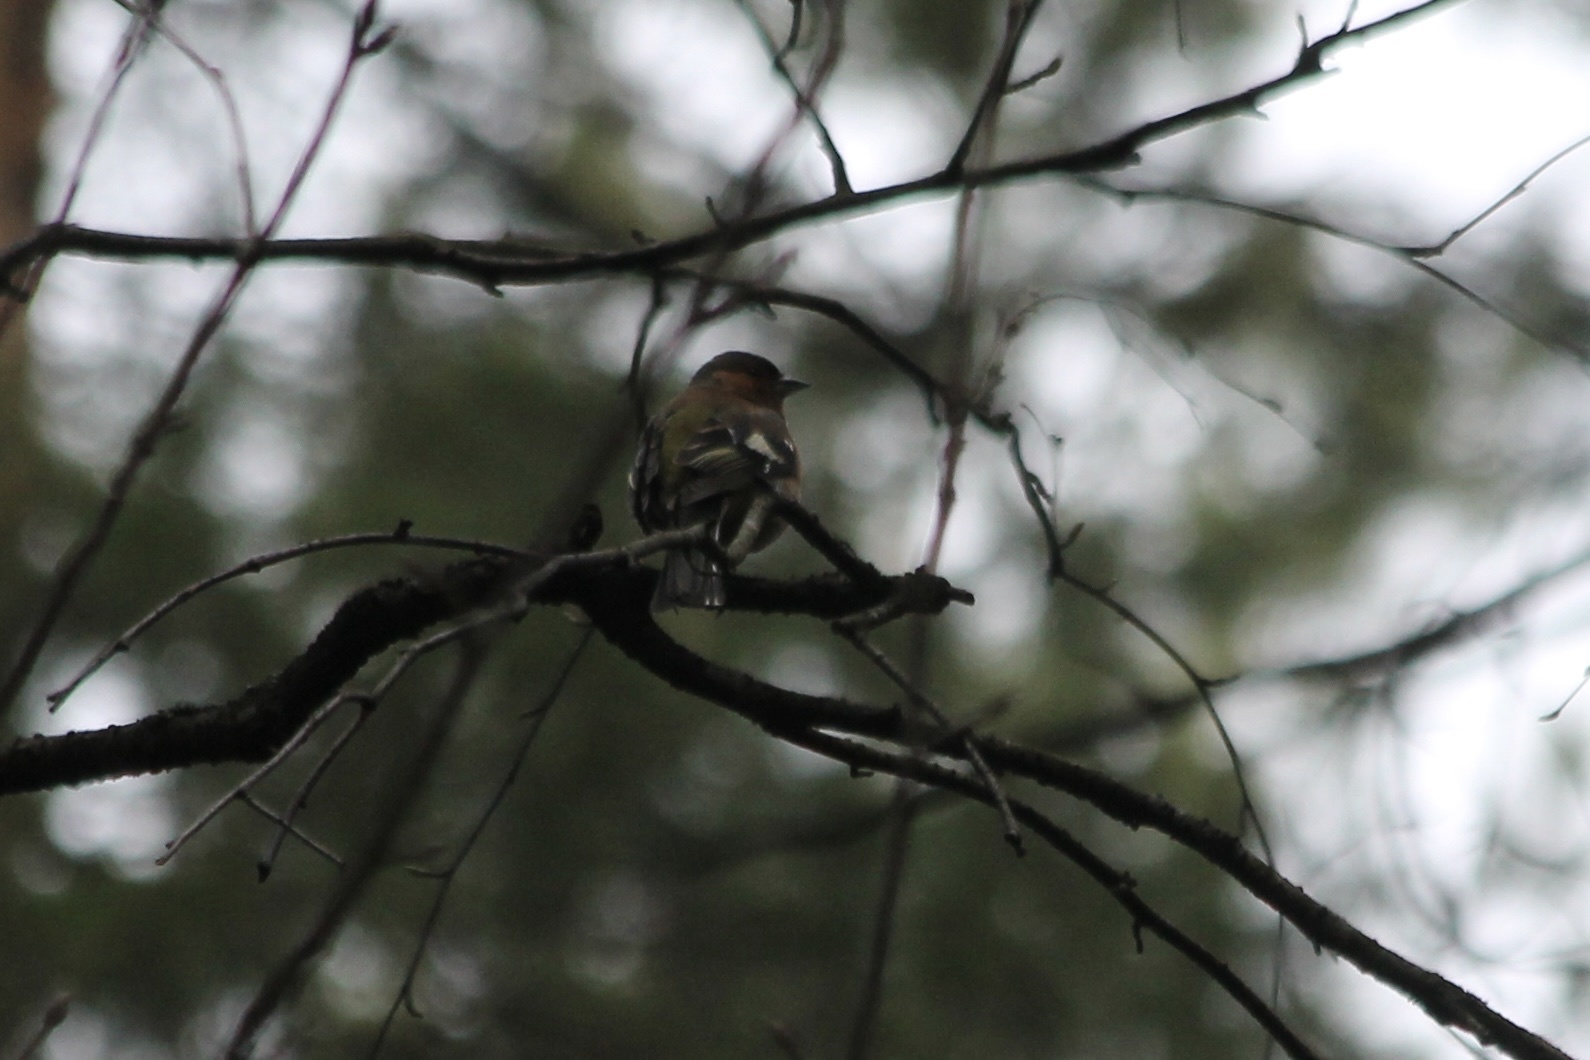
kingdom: Animalia
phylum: Chordata
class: Aves
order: Passeriformes
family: Fringillidae
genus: Fringilla
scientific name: Fringilla coelebs
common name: Common chaffinch
